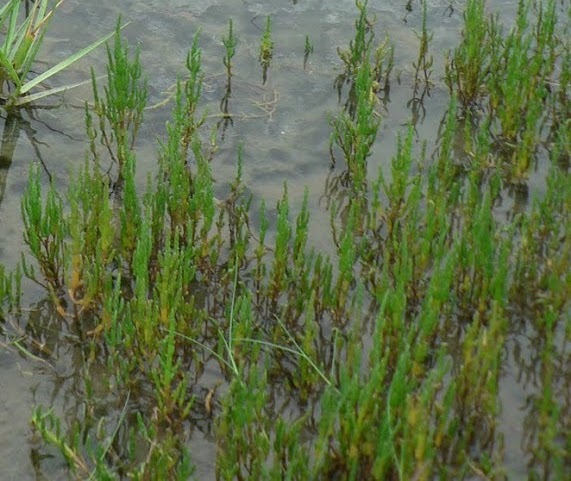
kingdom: Plantae
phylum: Tracheophyta
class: Magnoliopsida
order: Caryophyllales
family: Amaranthaceae
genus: Salicornia
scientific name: Salicornia europaea
